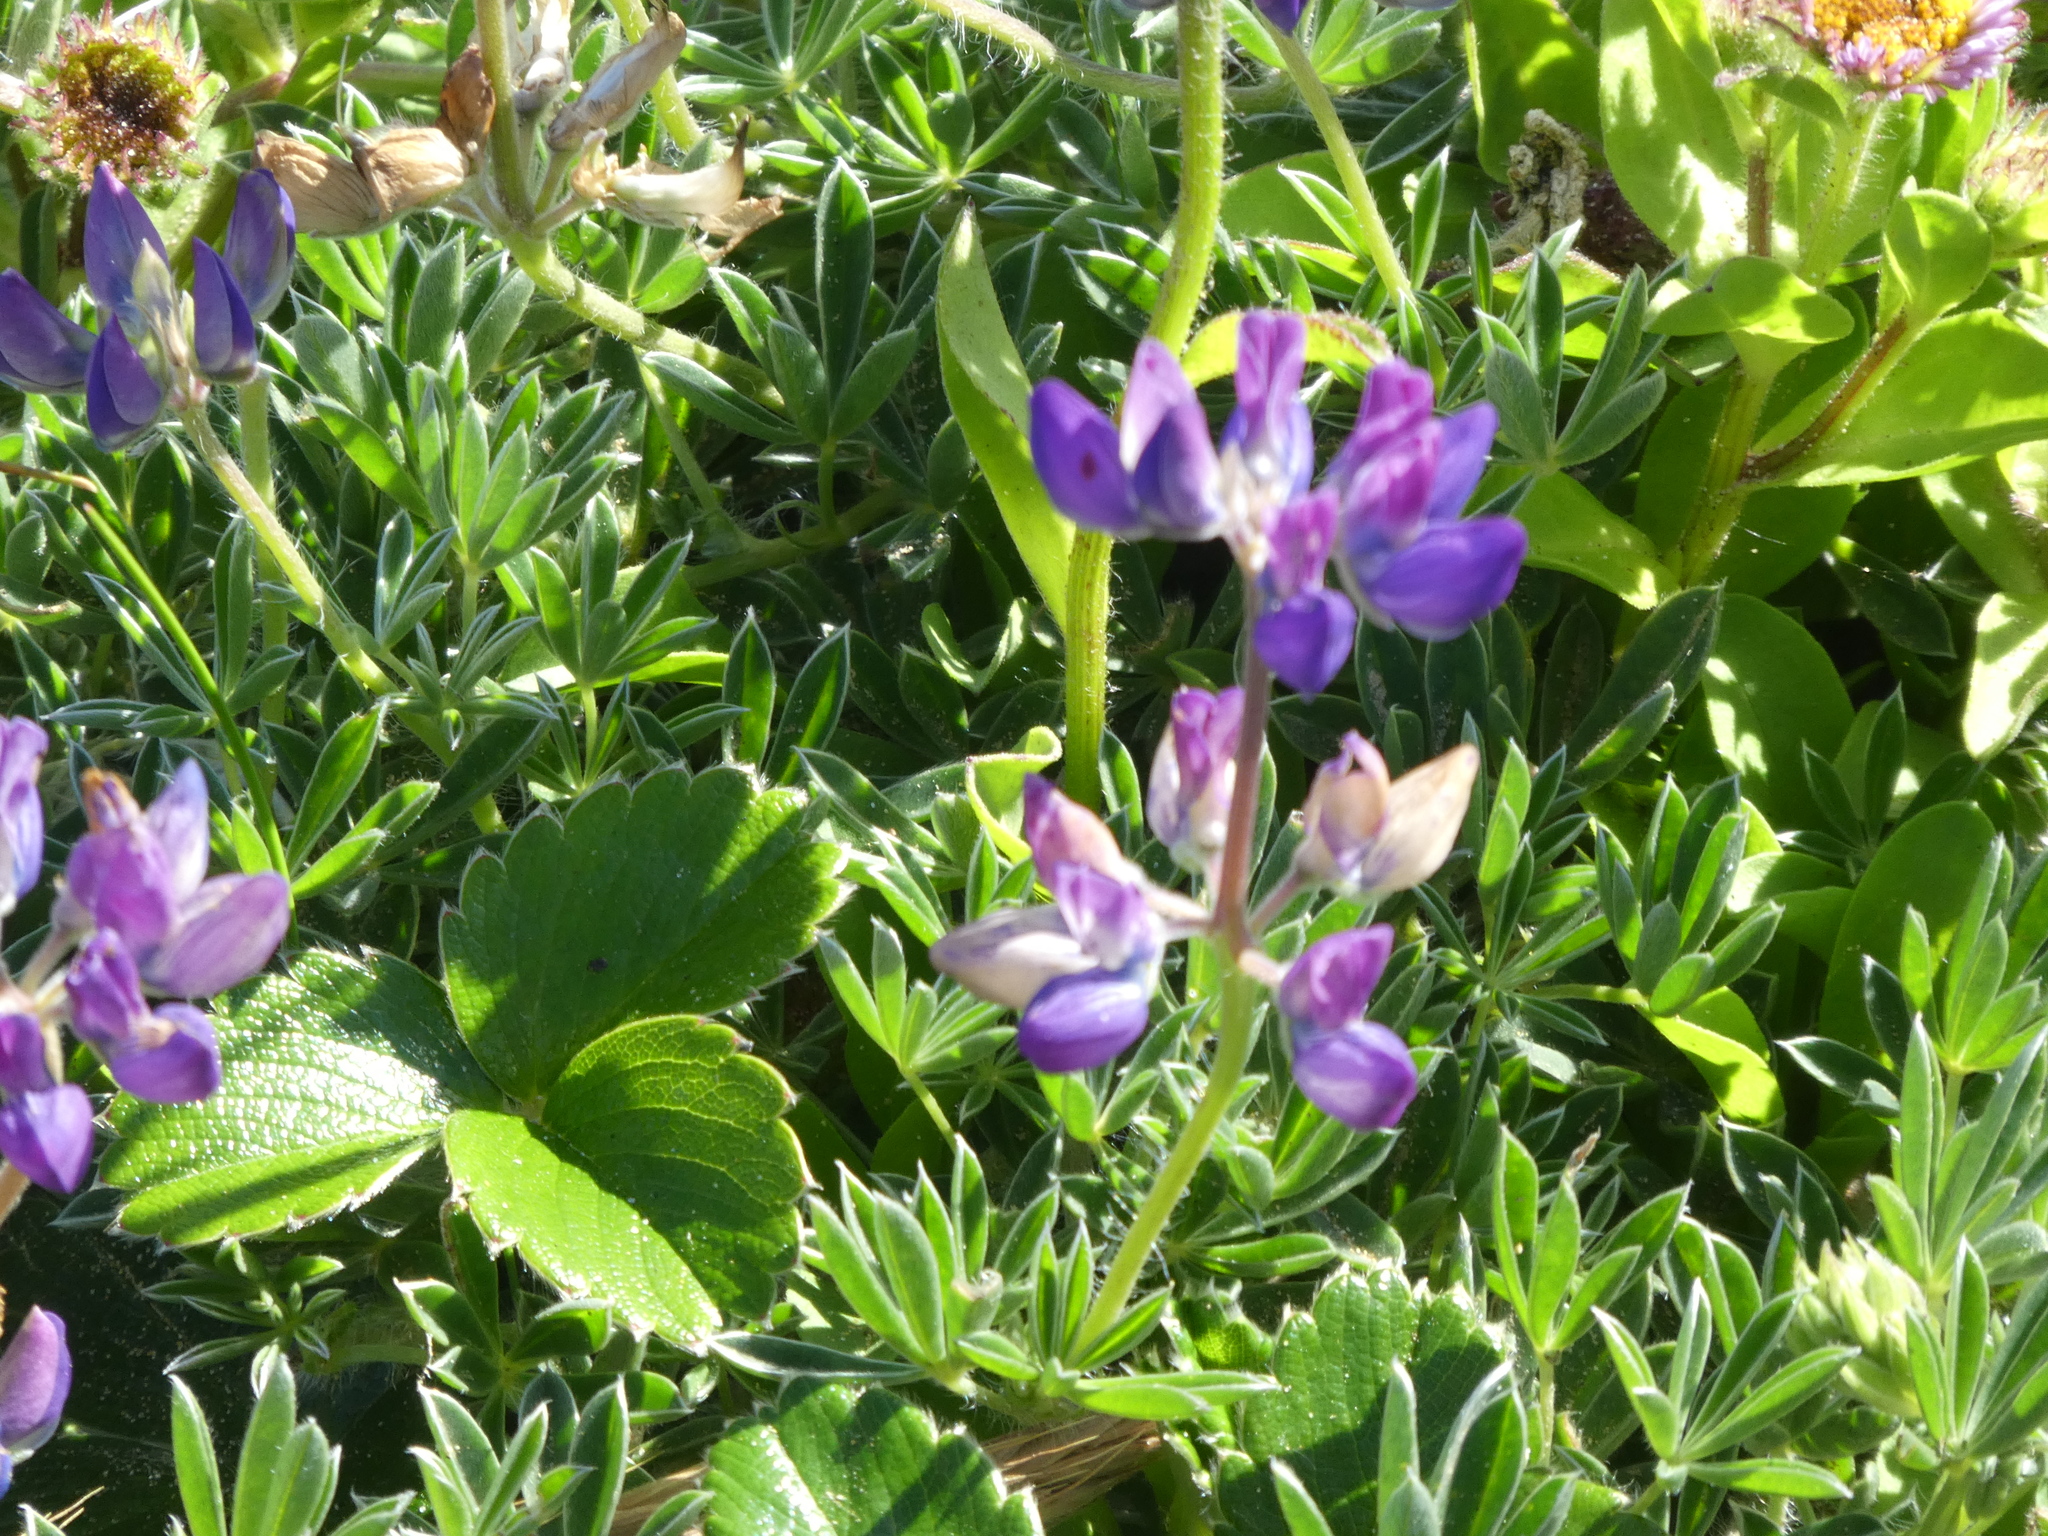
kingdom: Plantae
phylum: Tracheophyta
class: Magnoliopsida
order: Fabales
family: Fabaceae
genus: Lupinus
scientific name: Lupinus littoralis
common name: Seashore lupine
